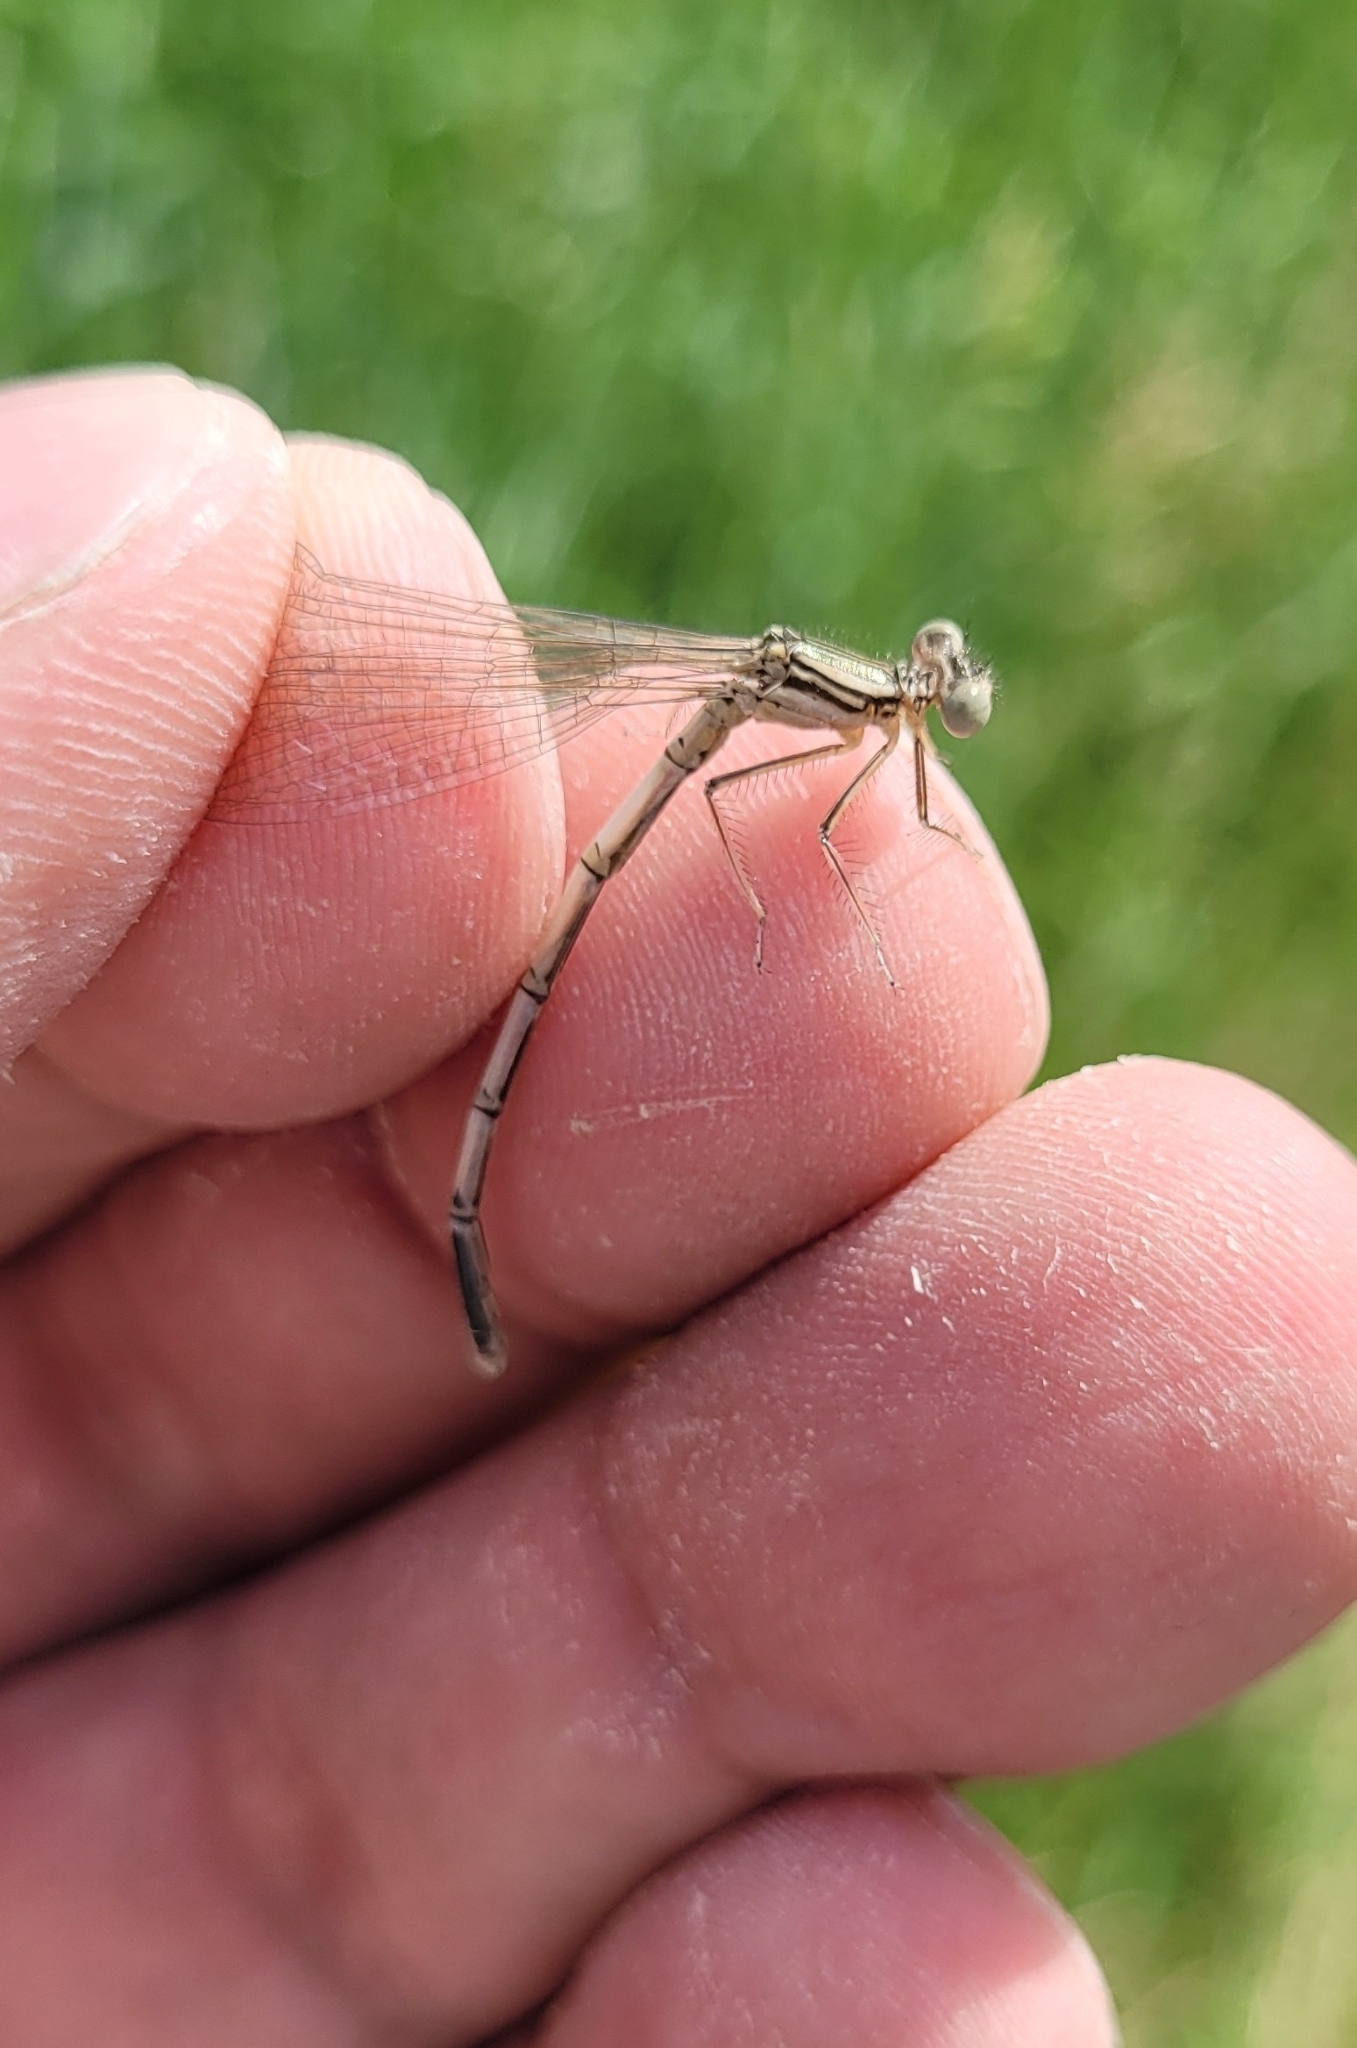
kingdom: Animalia
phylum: Arthropoda
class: Insecta
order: Odonata
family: Platycnemididae
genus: Platycnemis
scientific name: Platycnemis pennipes
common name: White-legged damselfly
